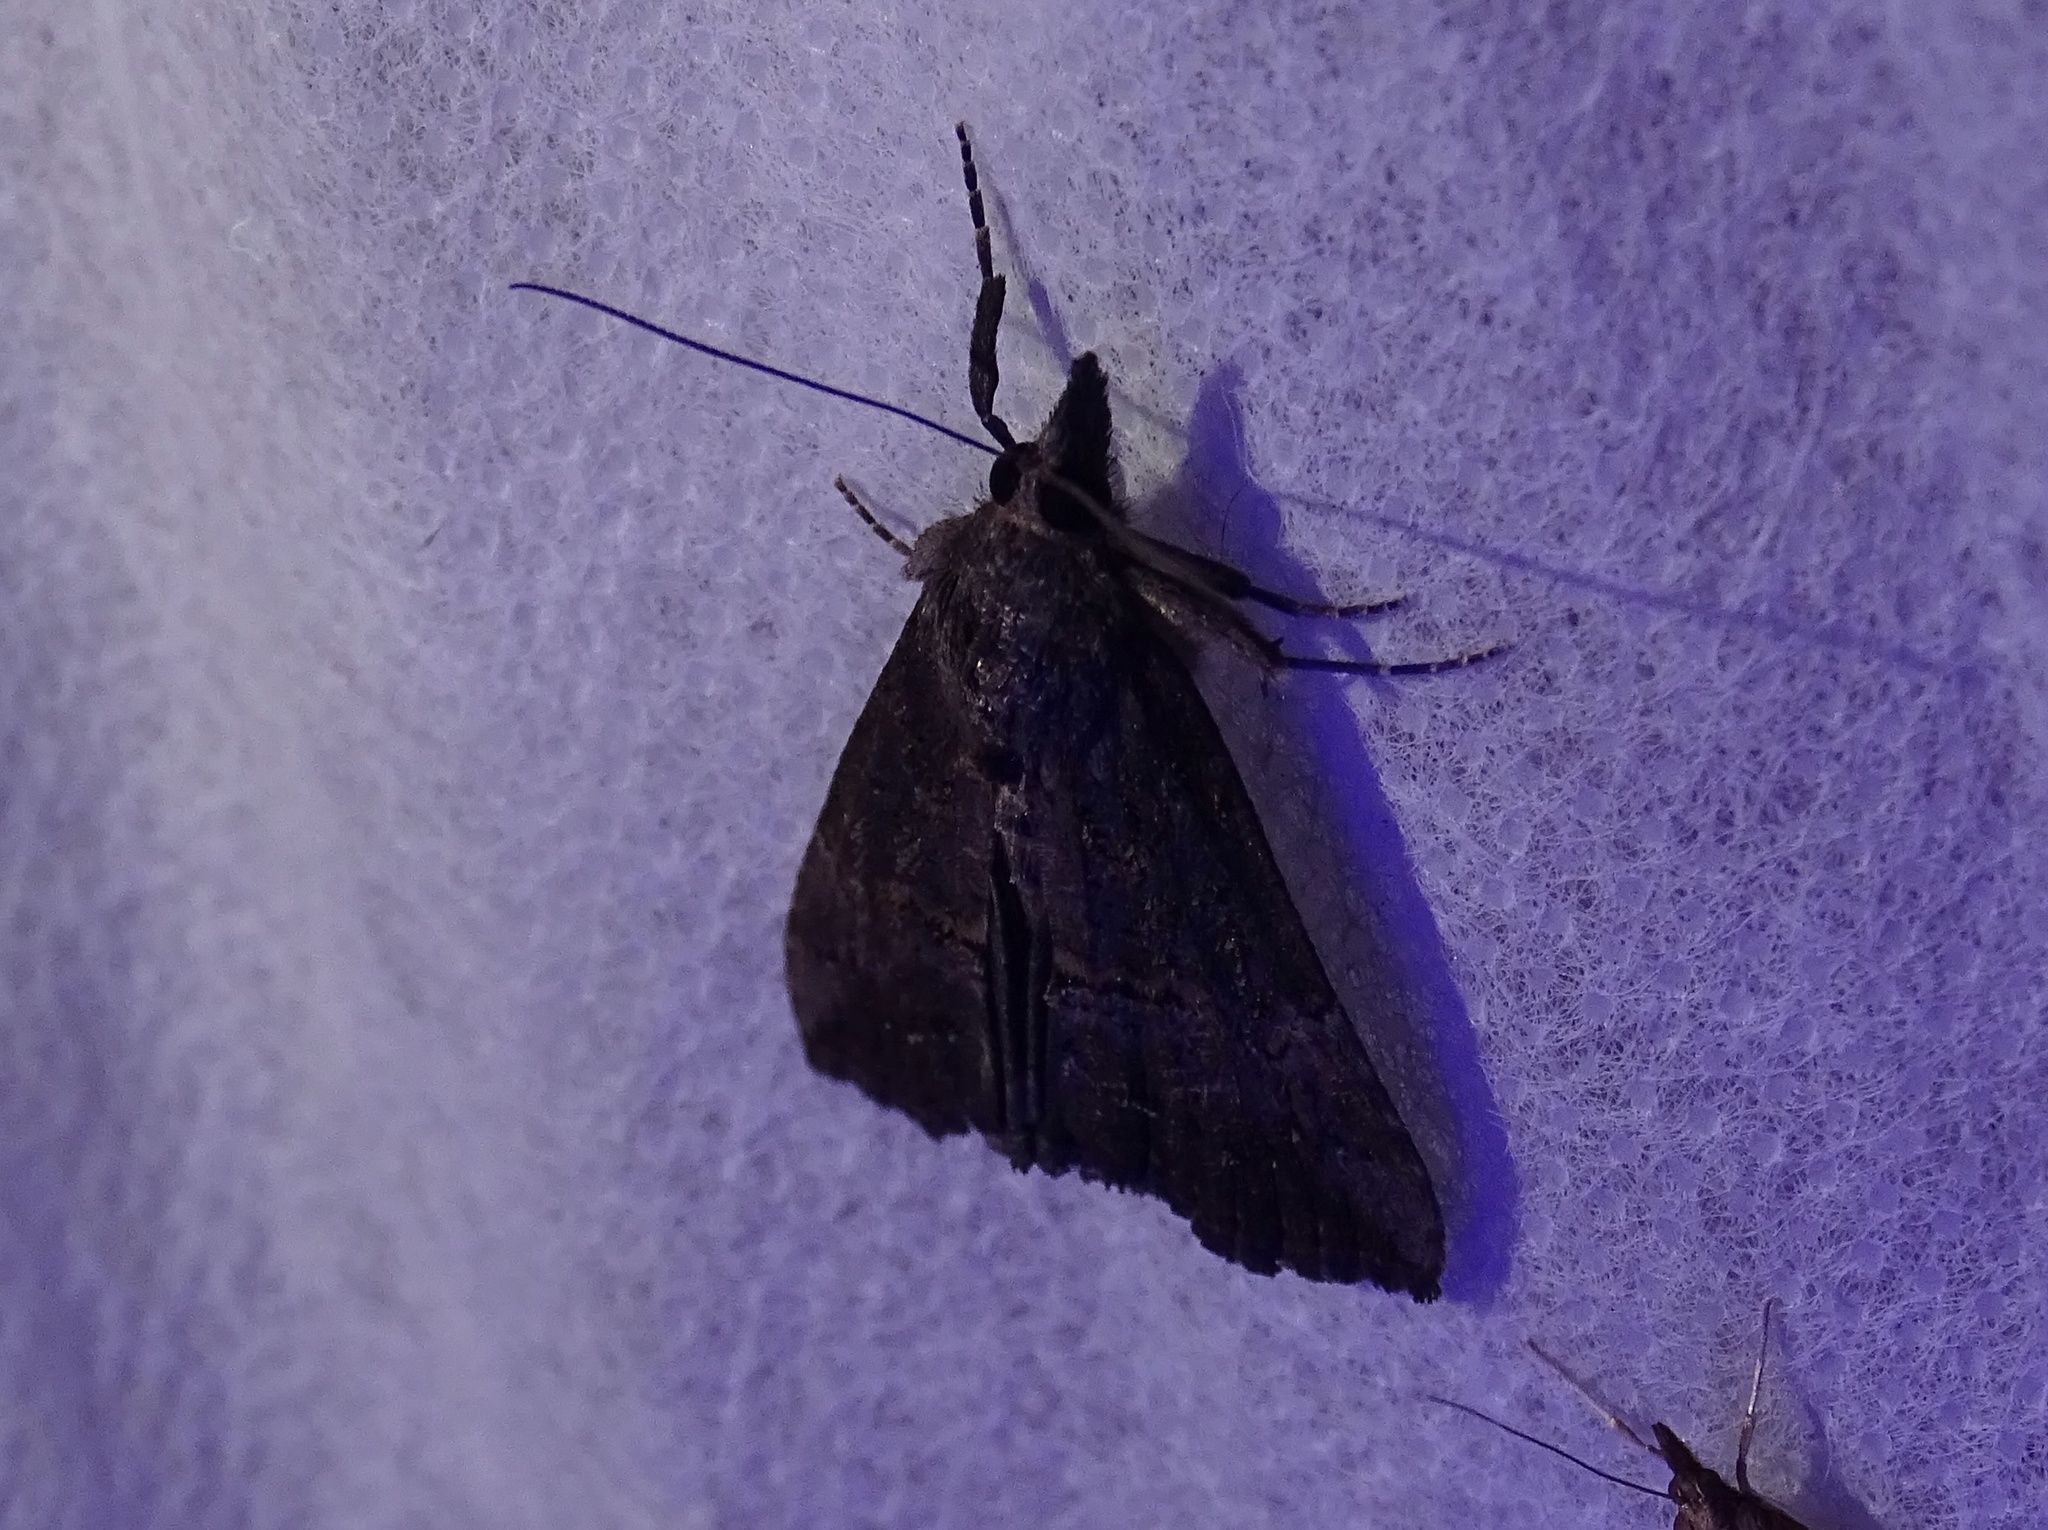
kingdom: Animalia
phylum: Arthropoda
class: Insecta
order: Lepidoptera
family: Erebidae
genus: Hypena
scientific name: Hypena scabra
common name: Green cloverworm
